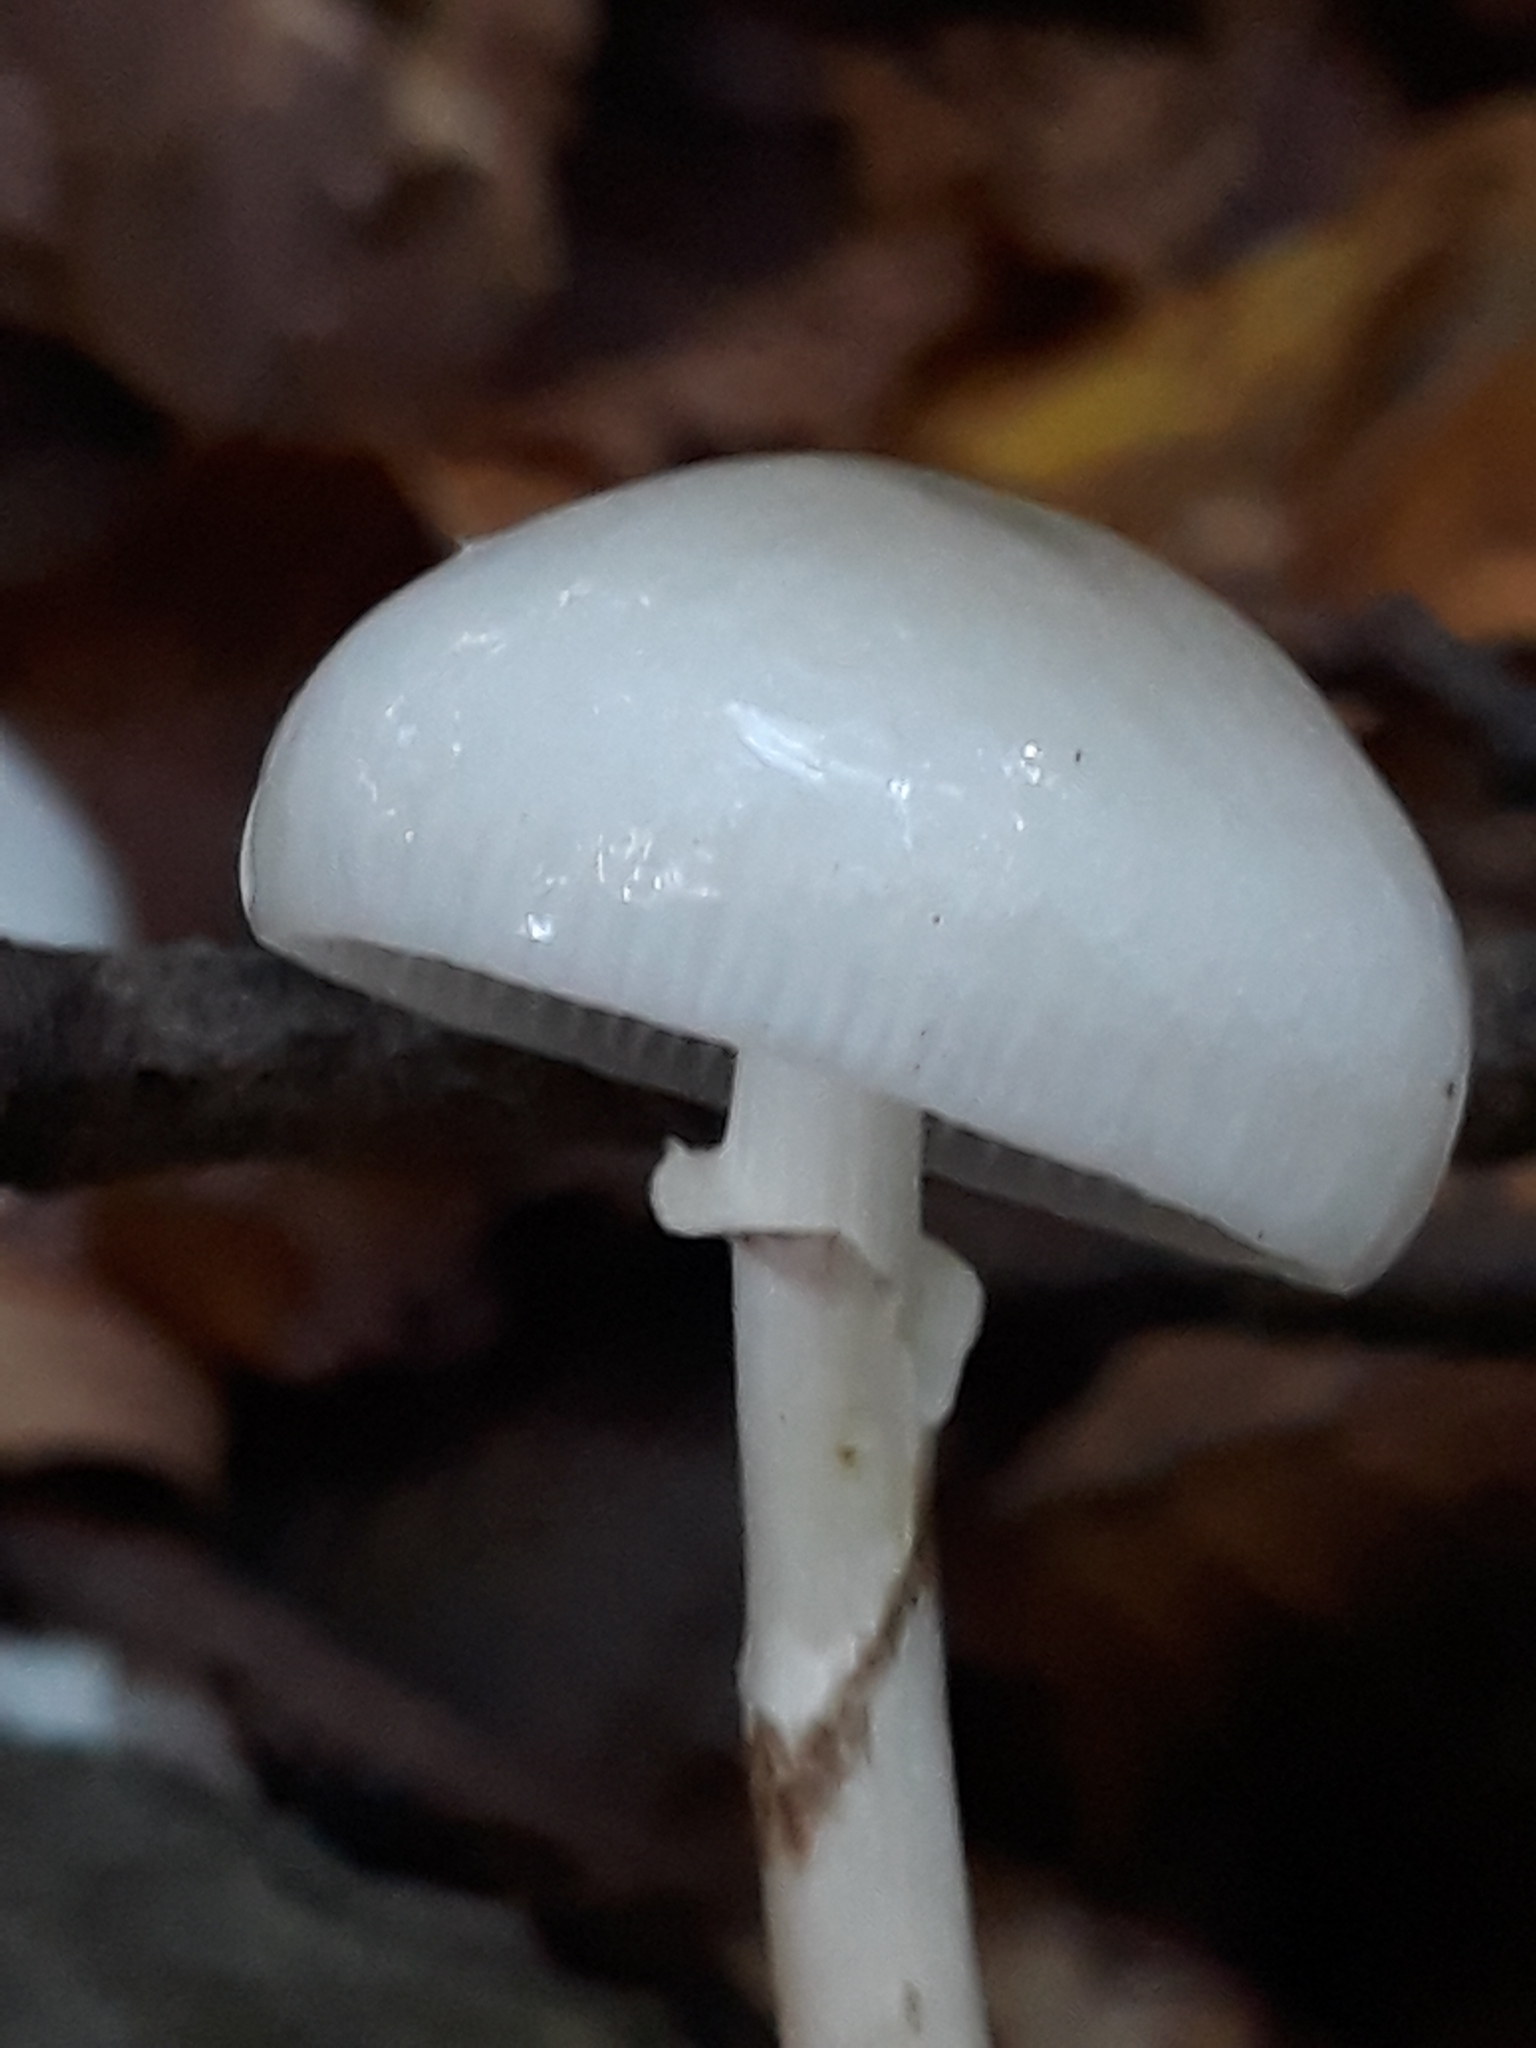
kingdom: Fungi
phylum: Basidiomycota
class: Agaricomycetes
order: Agaricales
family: Physalacriaceae
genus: Mucidula
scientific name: Mucidula mucida
